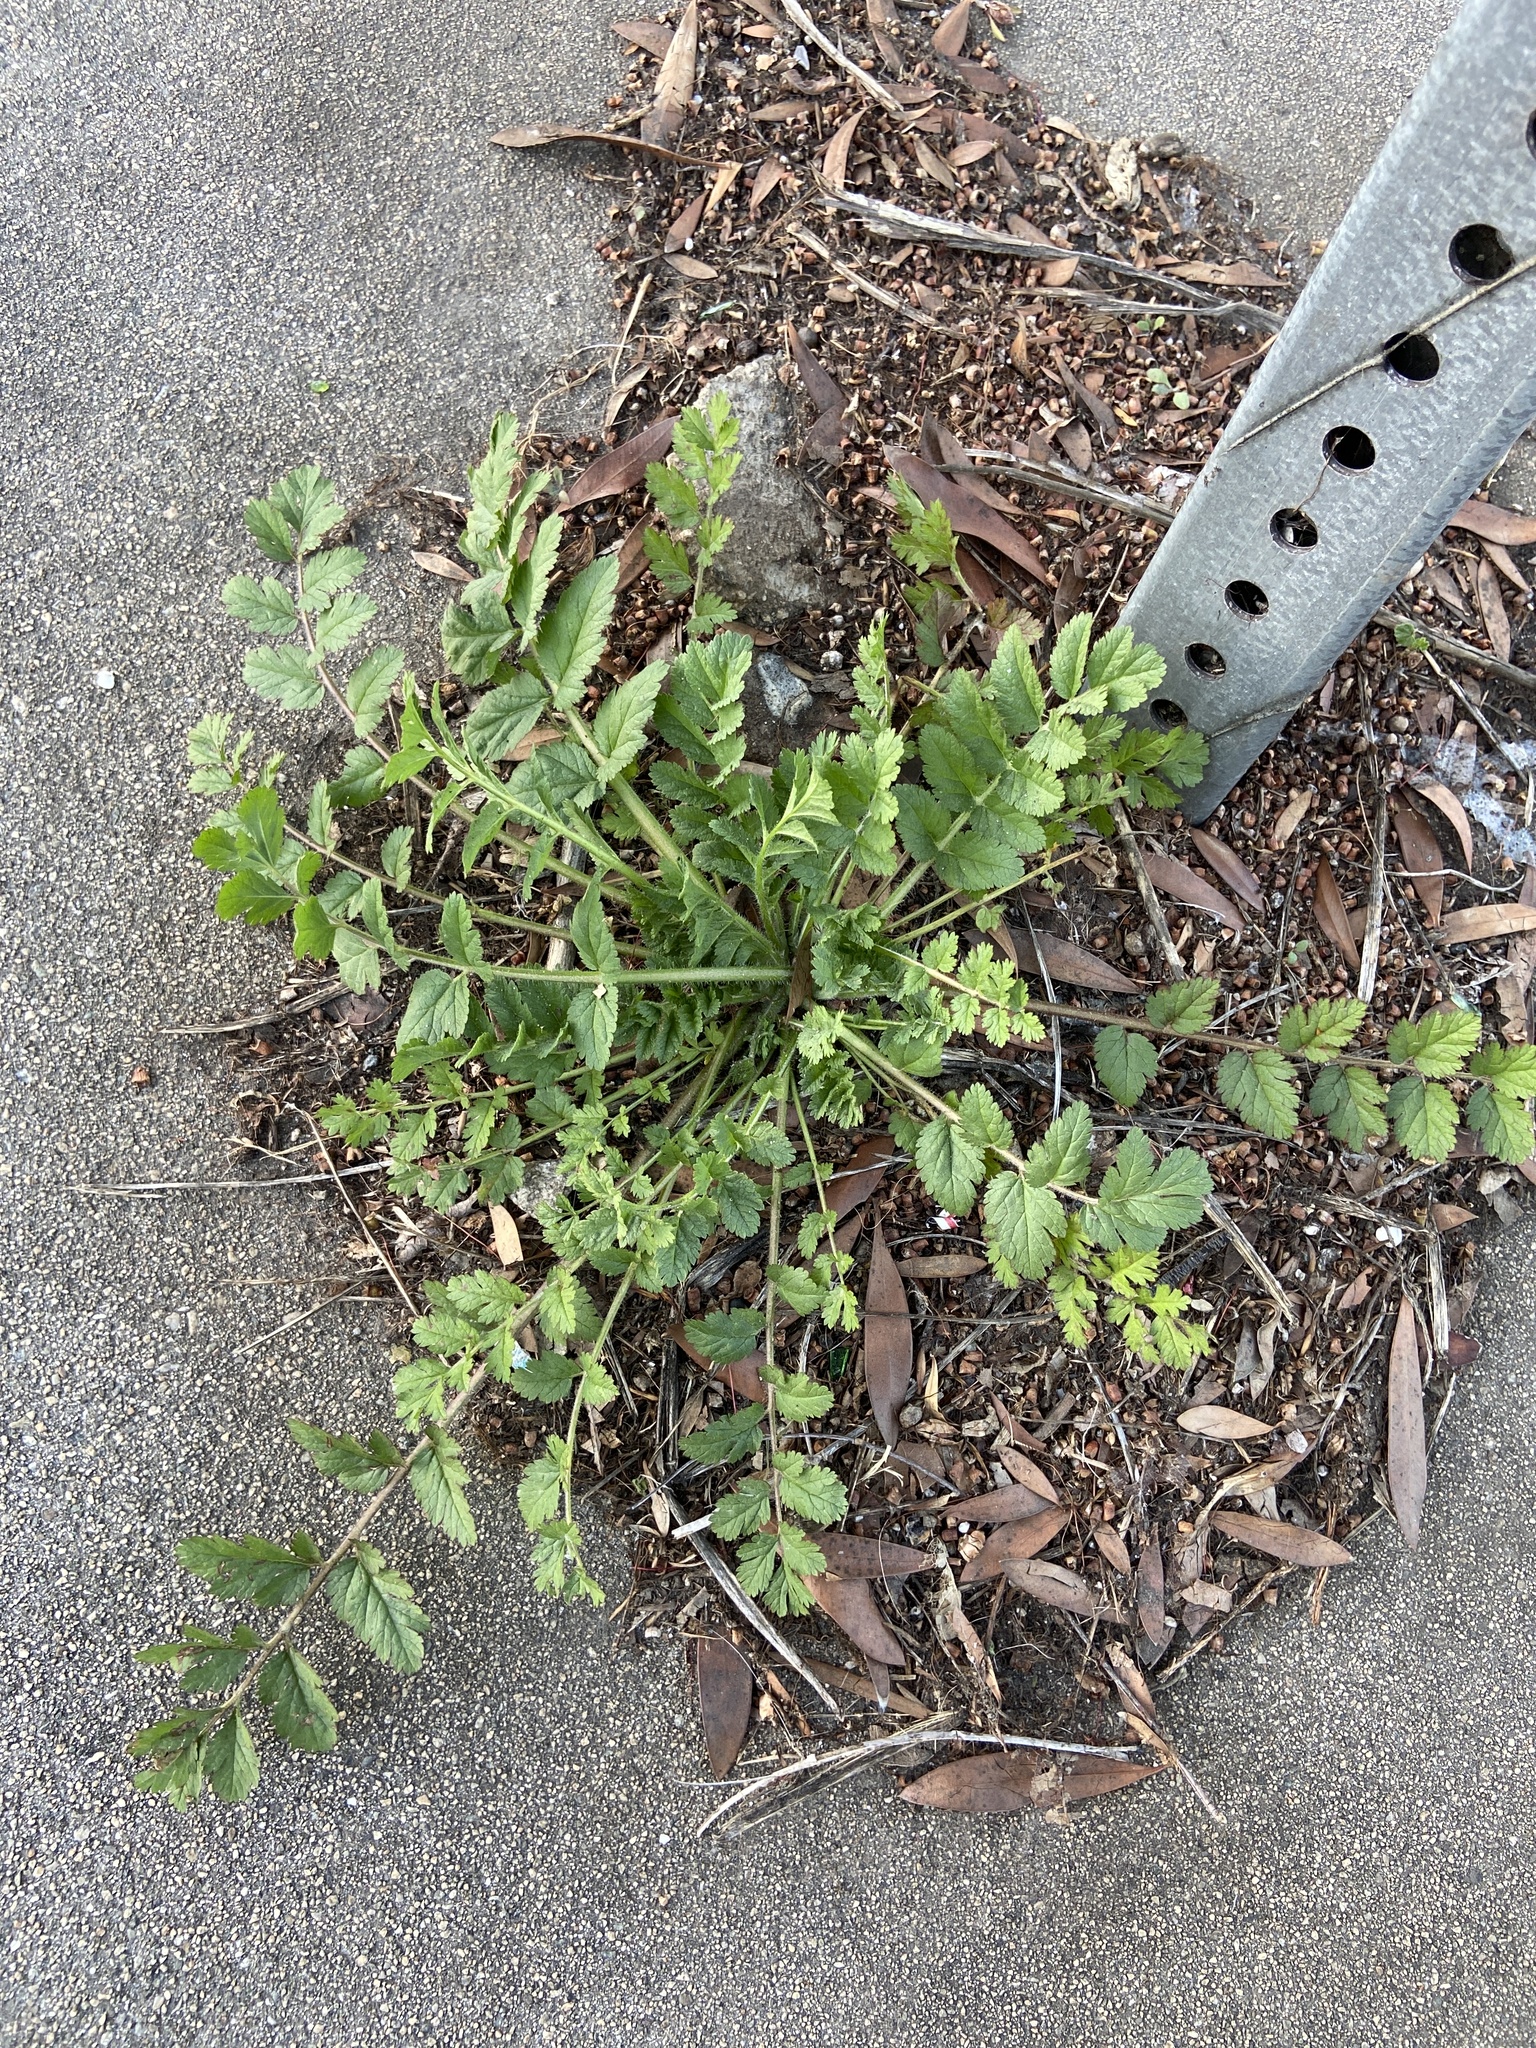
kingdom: Plantae
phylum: Tracheophyta
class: Magnoliopsida
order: Geraniales
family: Geraniaceae
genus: Erodium
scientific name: Erodium moschatum
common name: Musk stork's-bill
